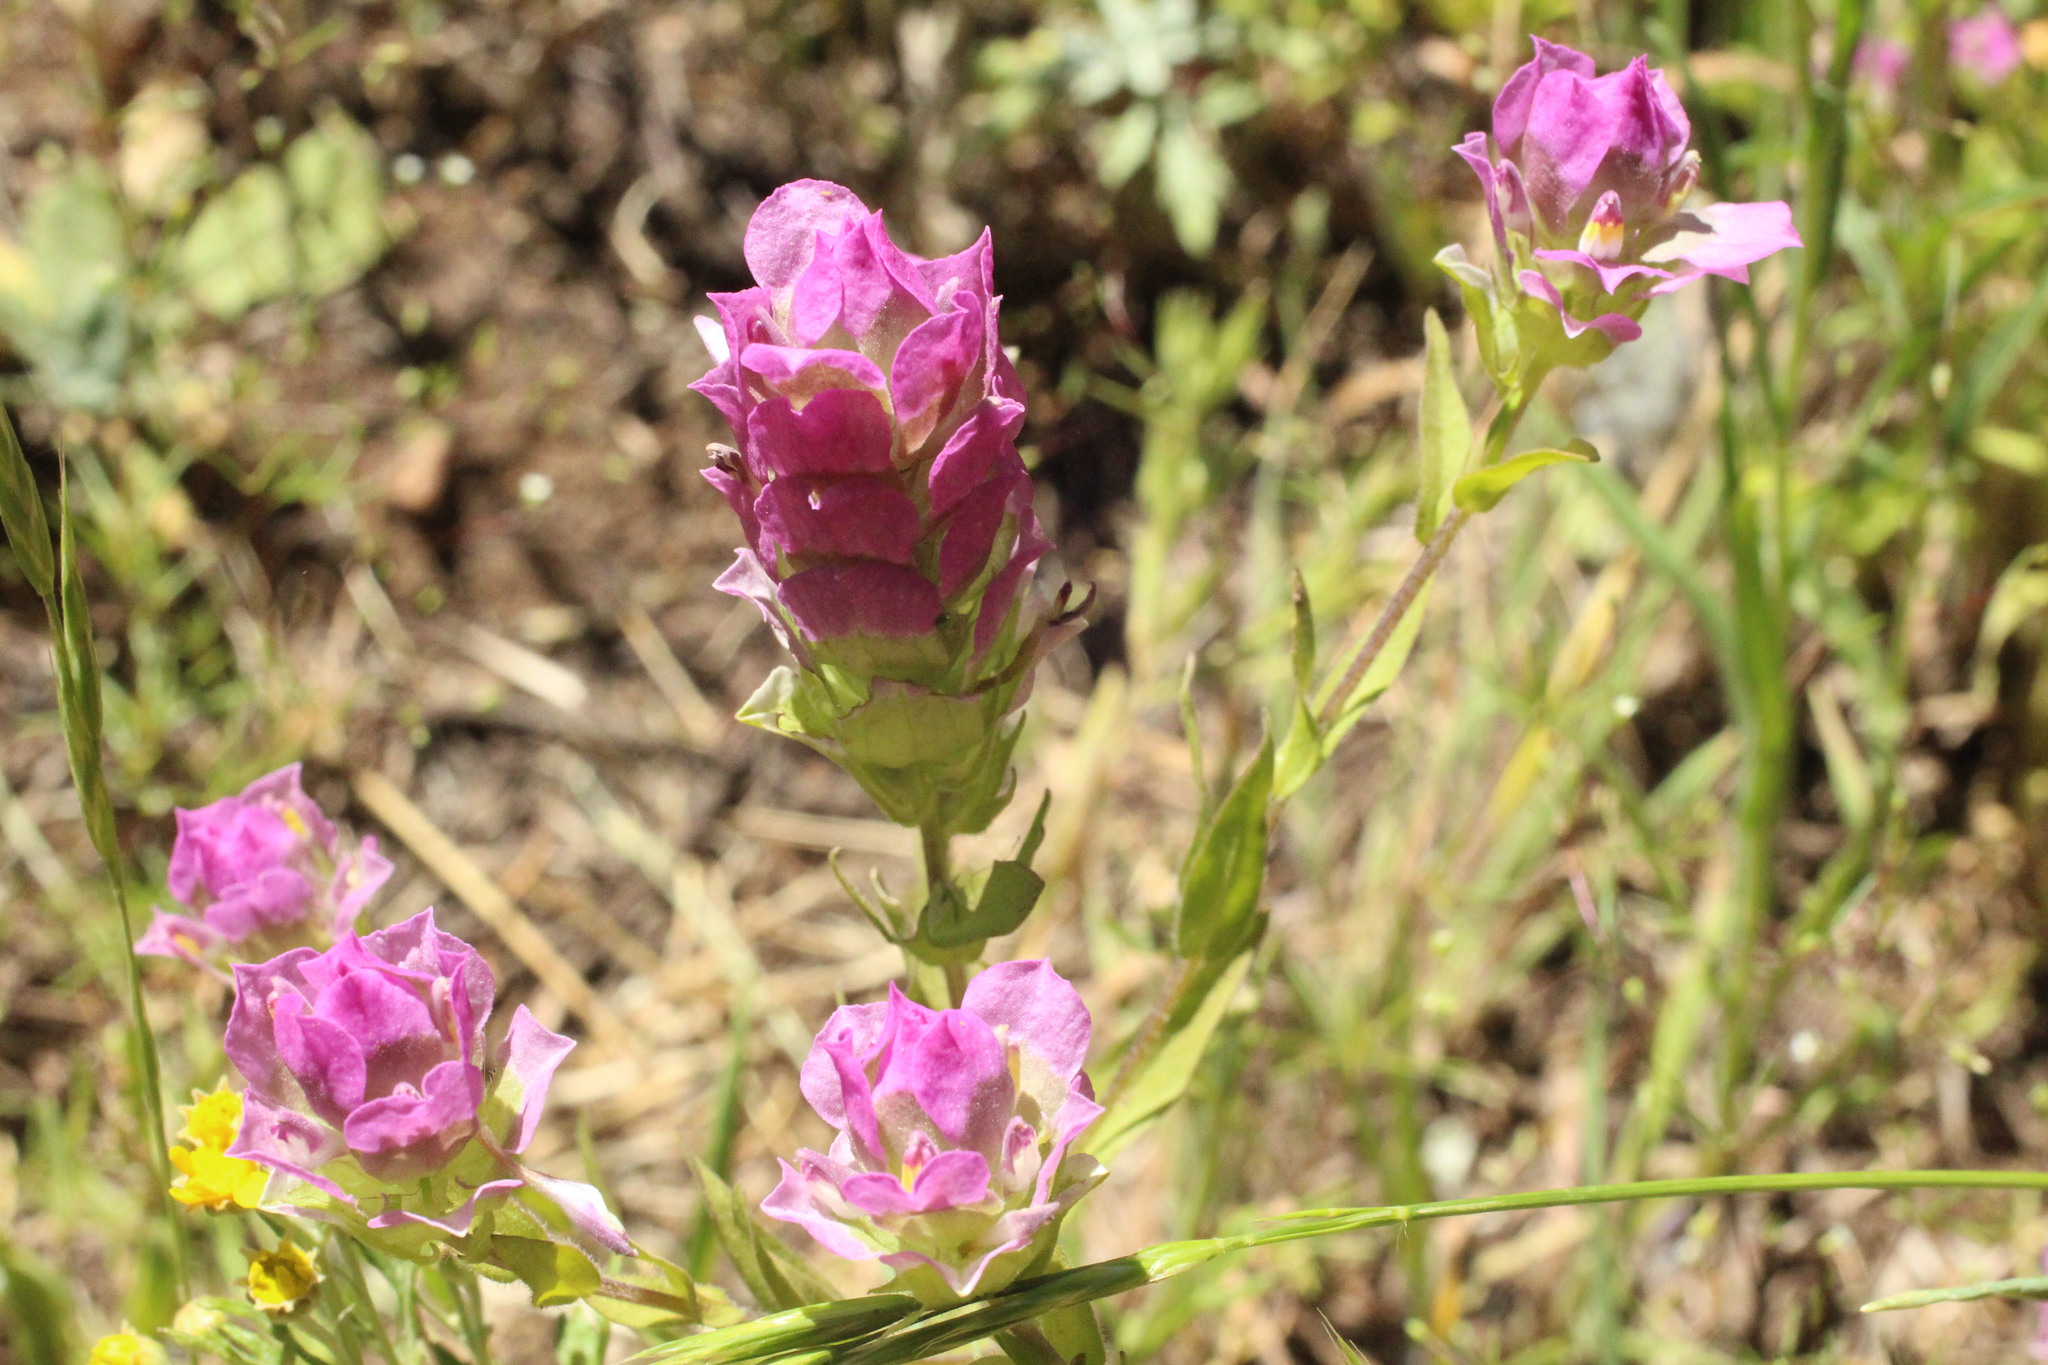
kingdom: Plantae
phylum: Tracheophyta
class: Magnoliopsida
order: Lamiales
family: Orobanchaceae
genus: Orthocarpus
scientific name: Orthocarpus imbricatus
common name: Mountain owl's-clover
